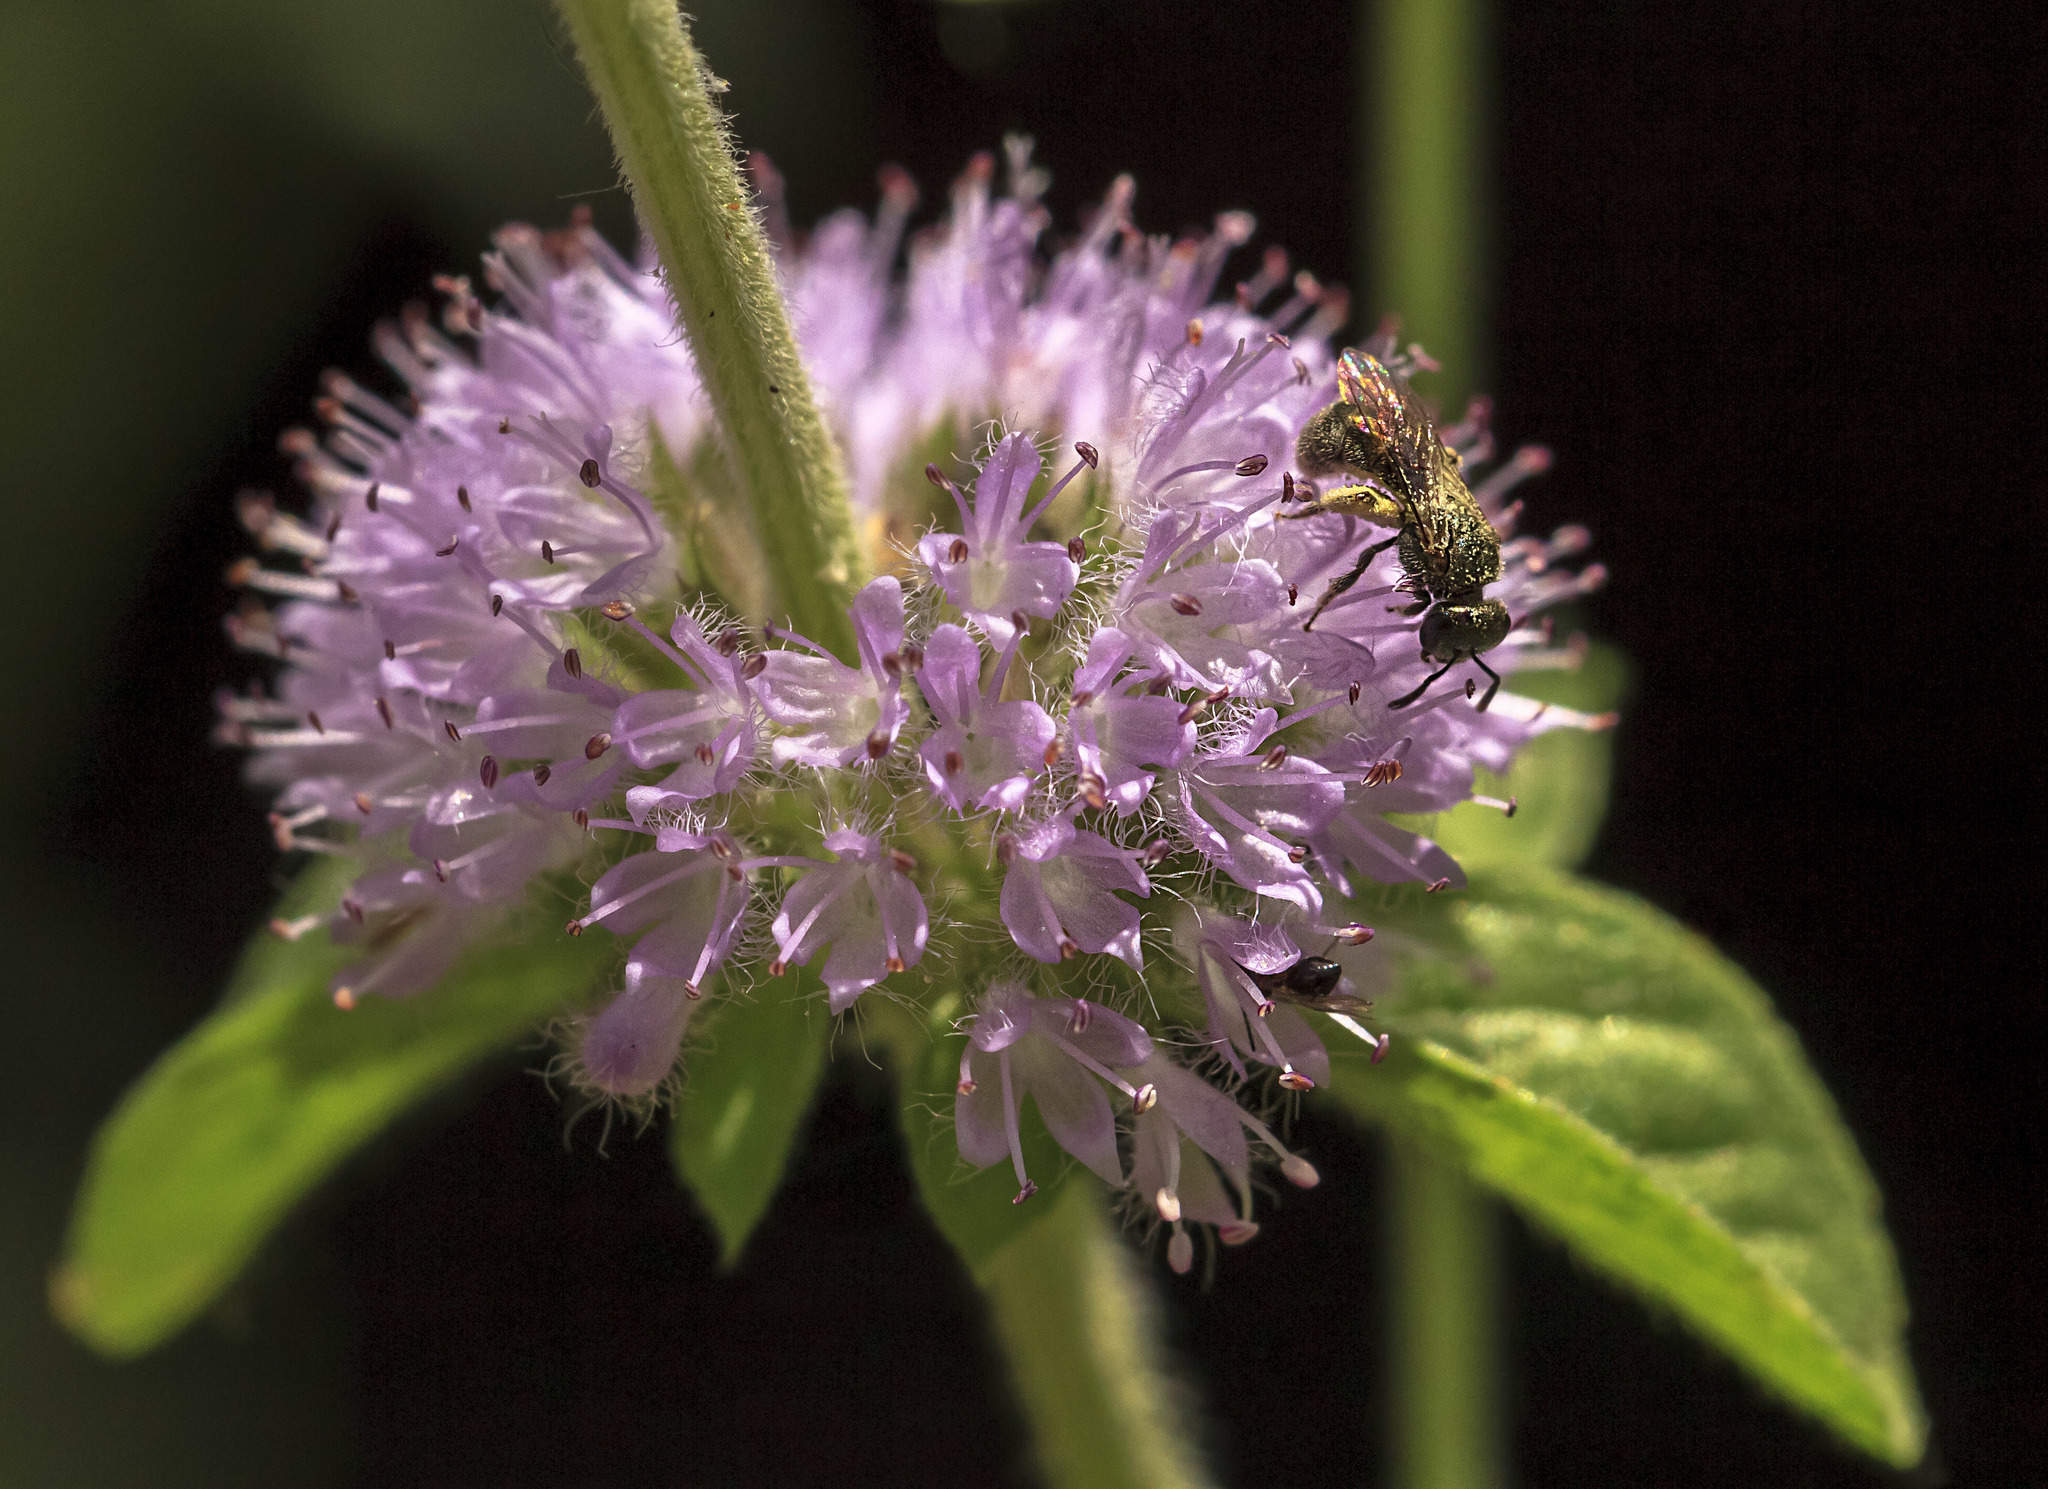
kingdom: Plantae
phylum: Tracheophyta
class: Magnoliopsida
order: Lamiales
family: Lamiaceae
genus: Mentha
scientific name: Mentha pulegium
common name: Pennyroyal
